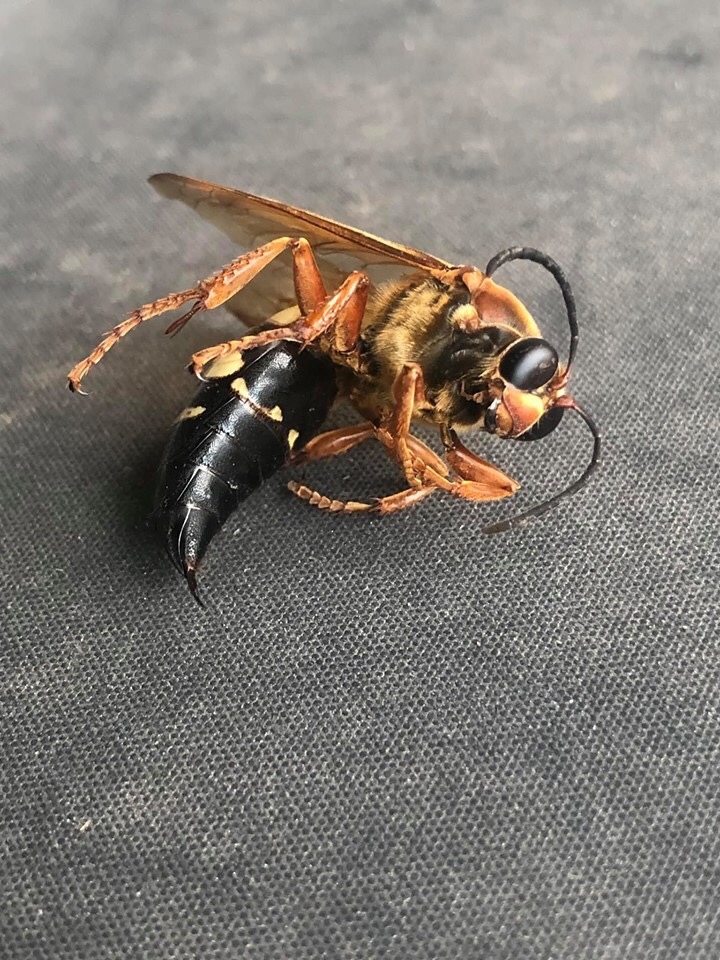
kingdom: Animalia
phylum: Arthropoda
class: Insecta
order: Hymenoptera
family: Crabronidae
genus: Sphecius
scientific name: Sphecius speciosus
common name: Cicada killer
